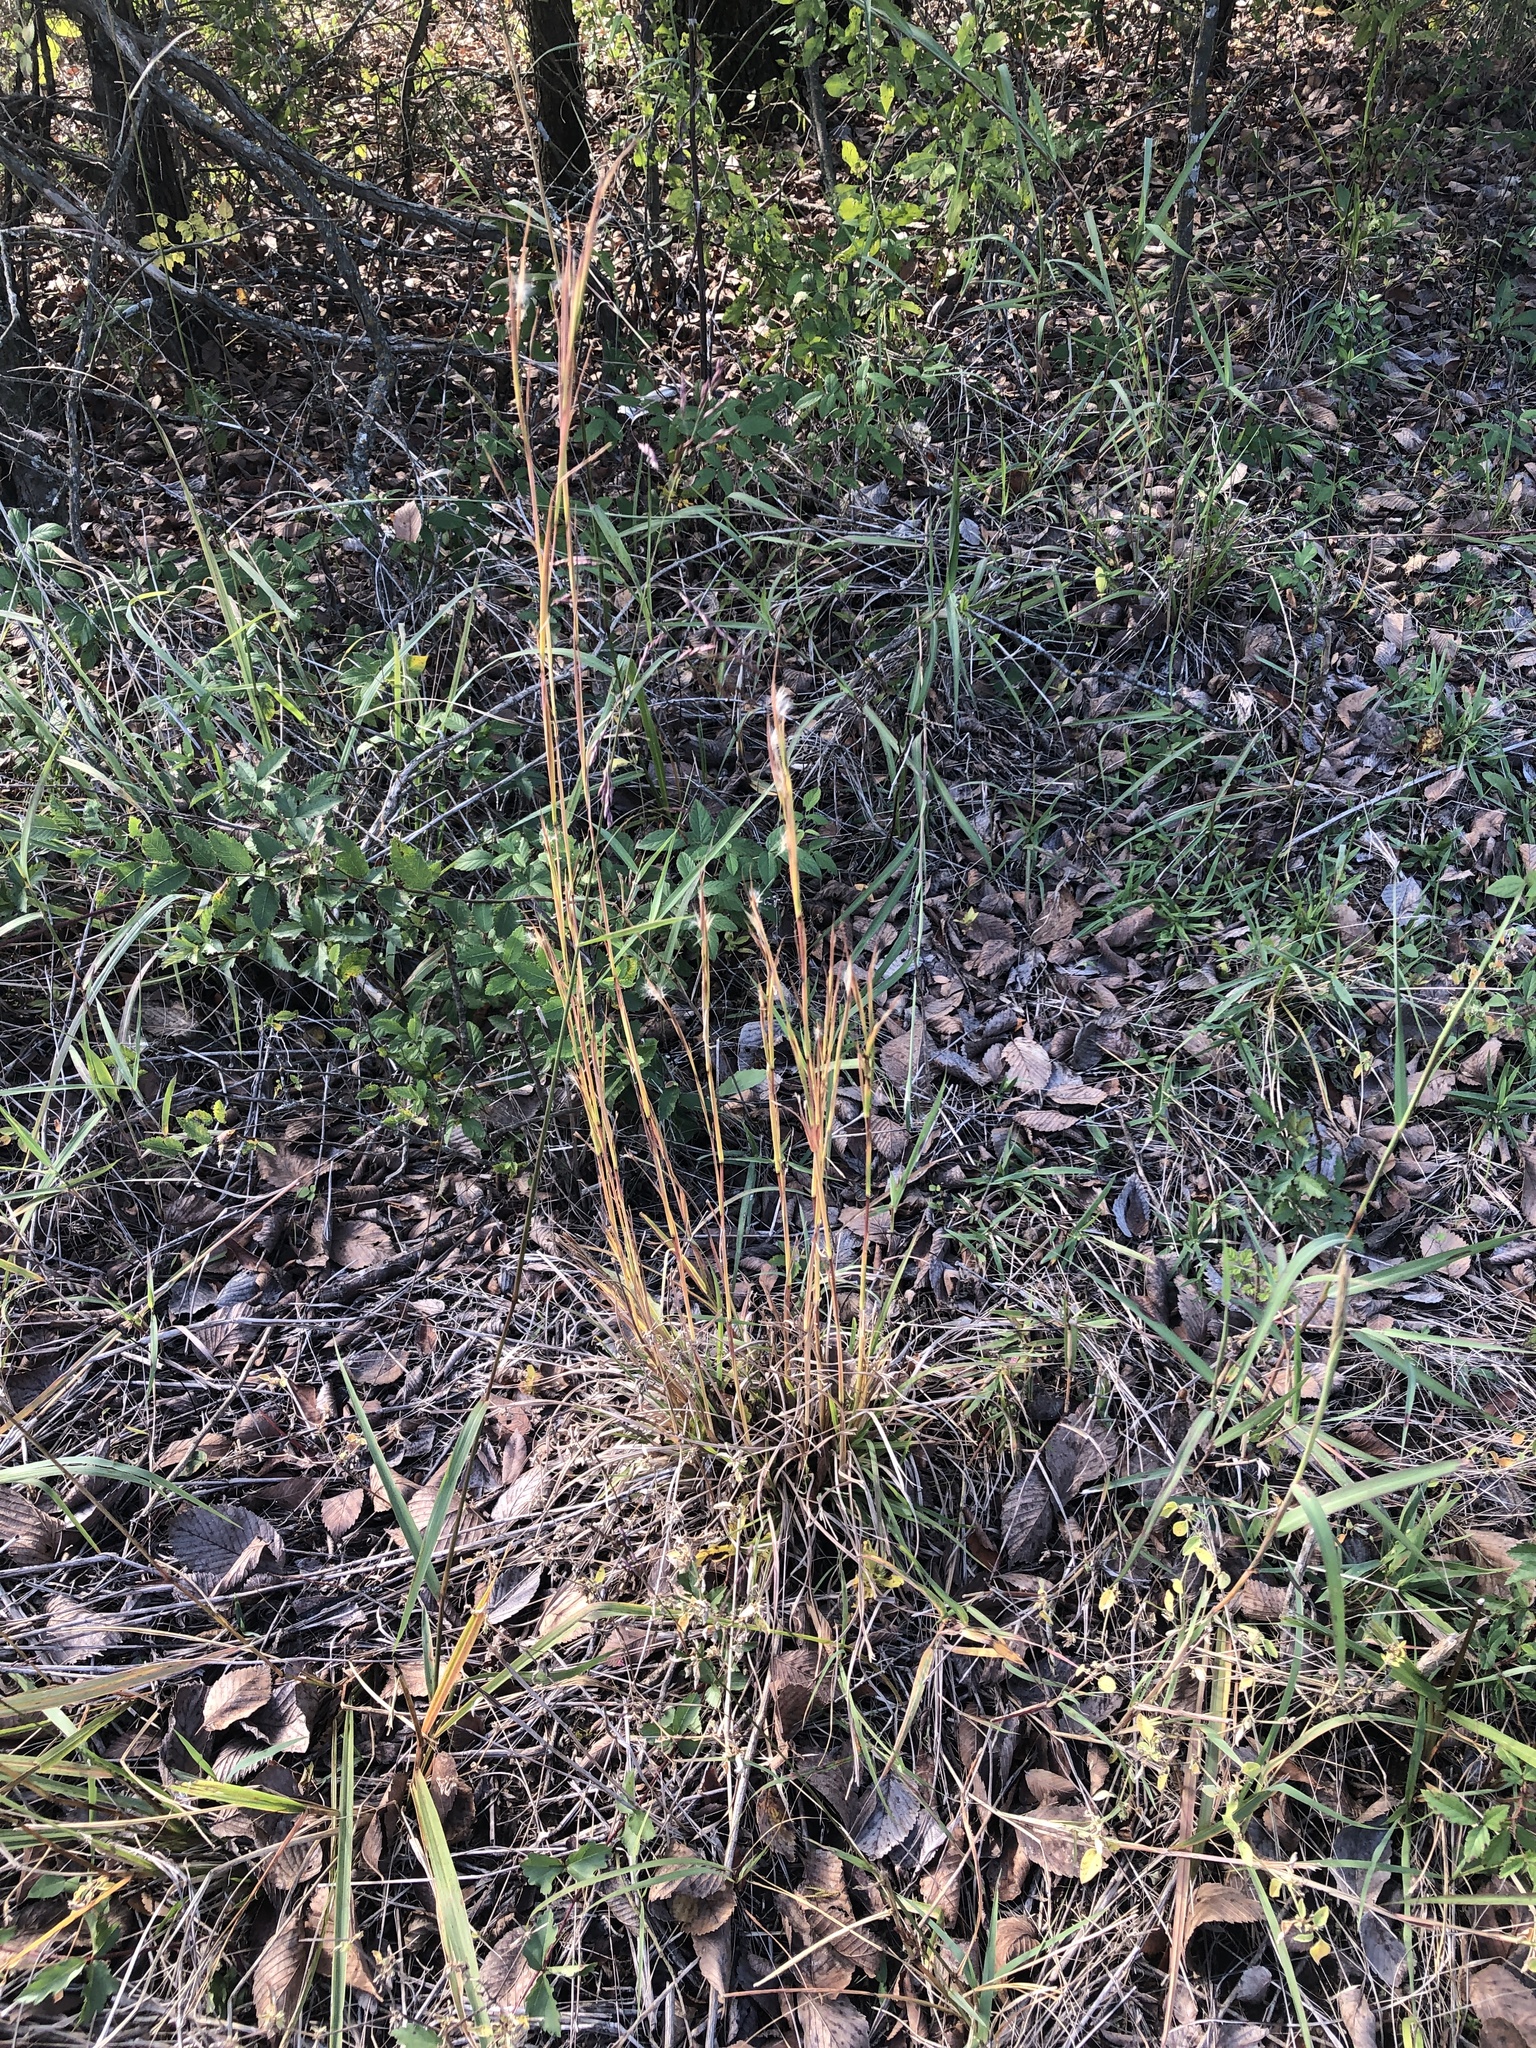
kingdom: Plantae
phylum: Tracheophyta
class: Liliopsida
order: Poales
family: Poaceae
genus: Andropogon
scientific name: Andropogon virginicus
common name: Broomsedge bluestem
